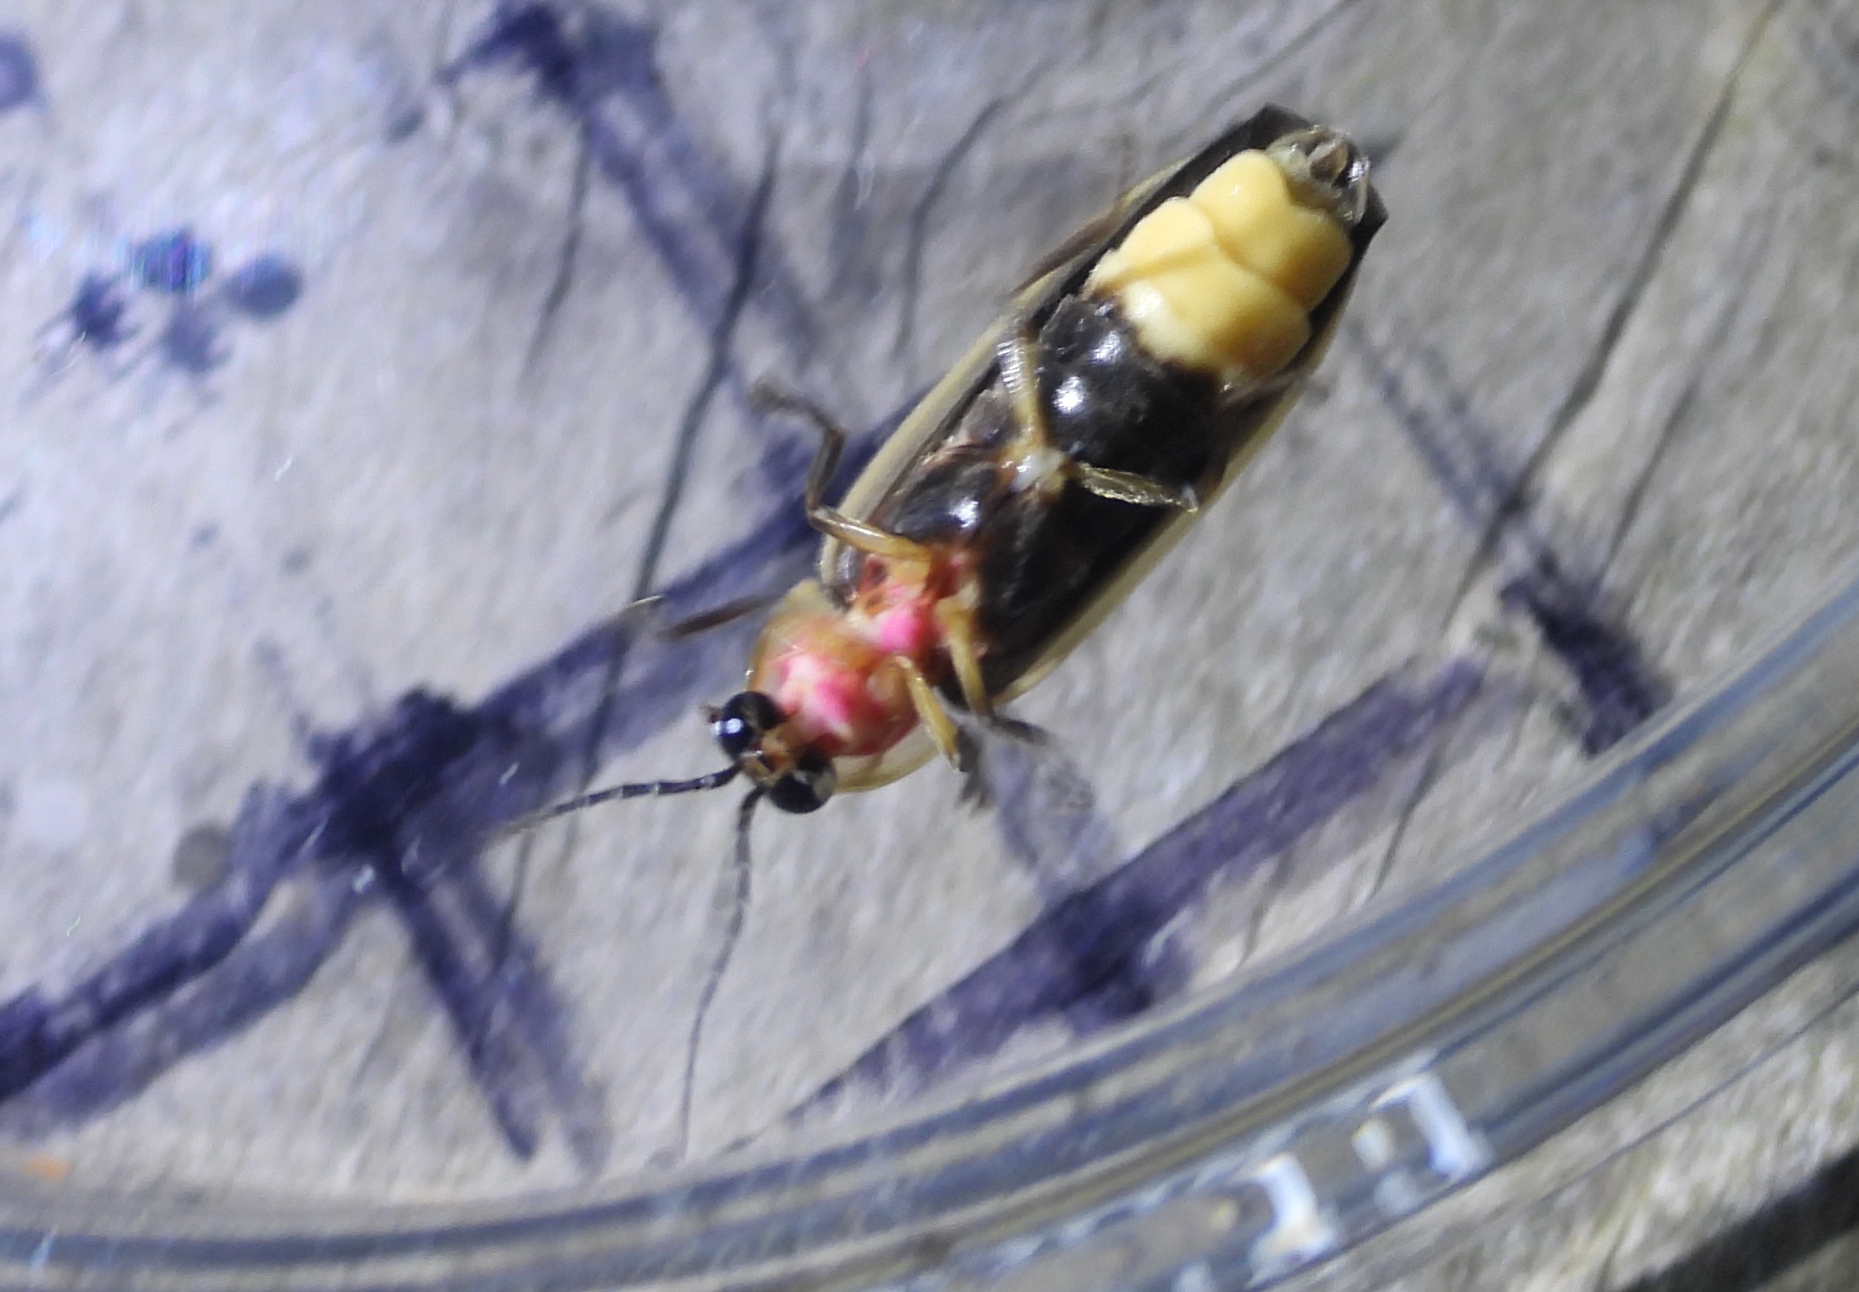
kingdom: Animalia
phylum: Arthropoda
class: Insecta
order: Coleoptera
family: Lampyridae
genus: Photinus
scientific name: Photinus pyralis
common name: Big dipper firefly
